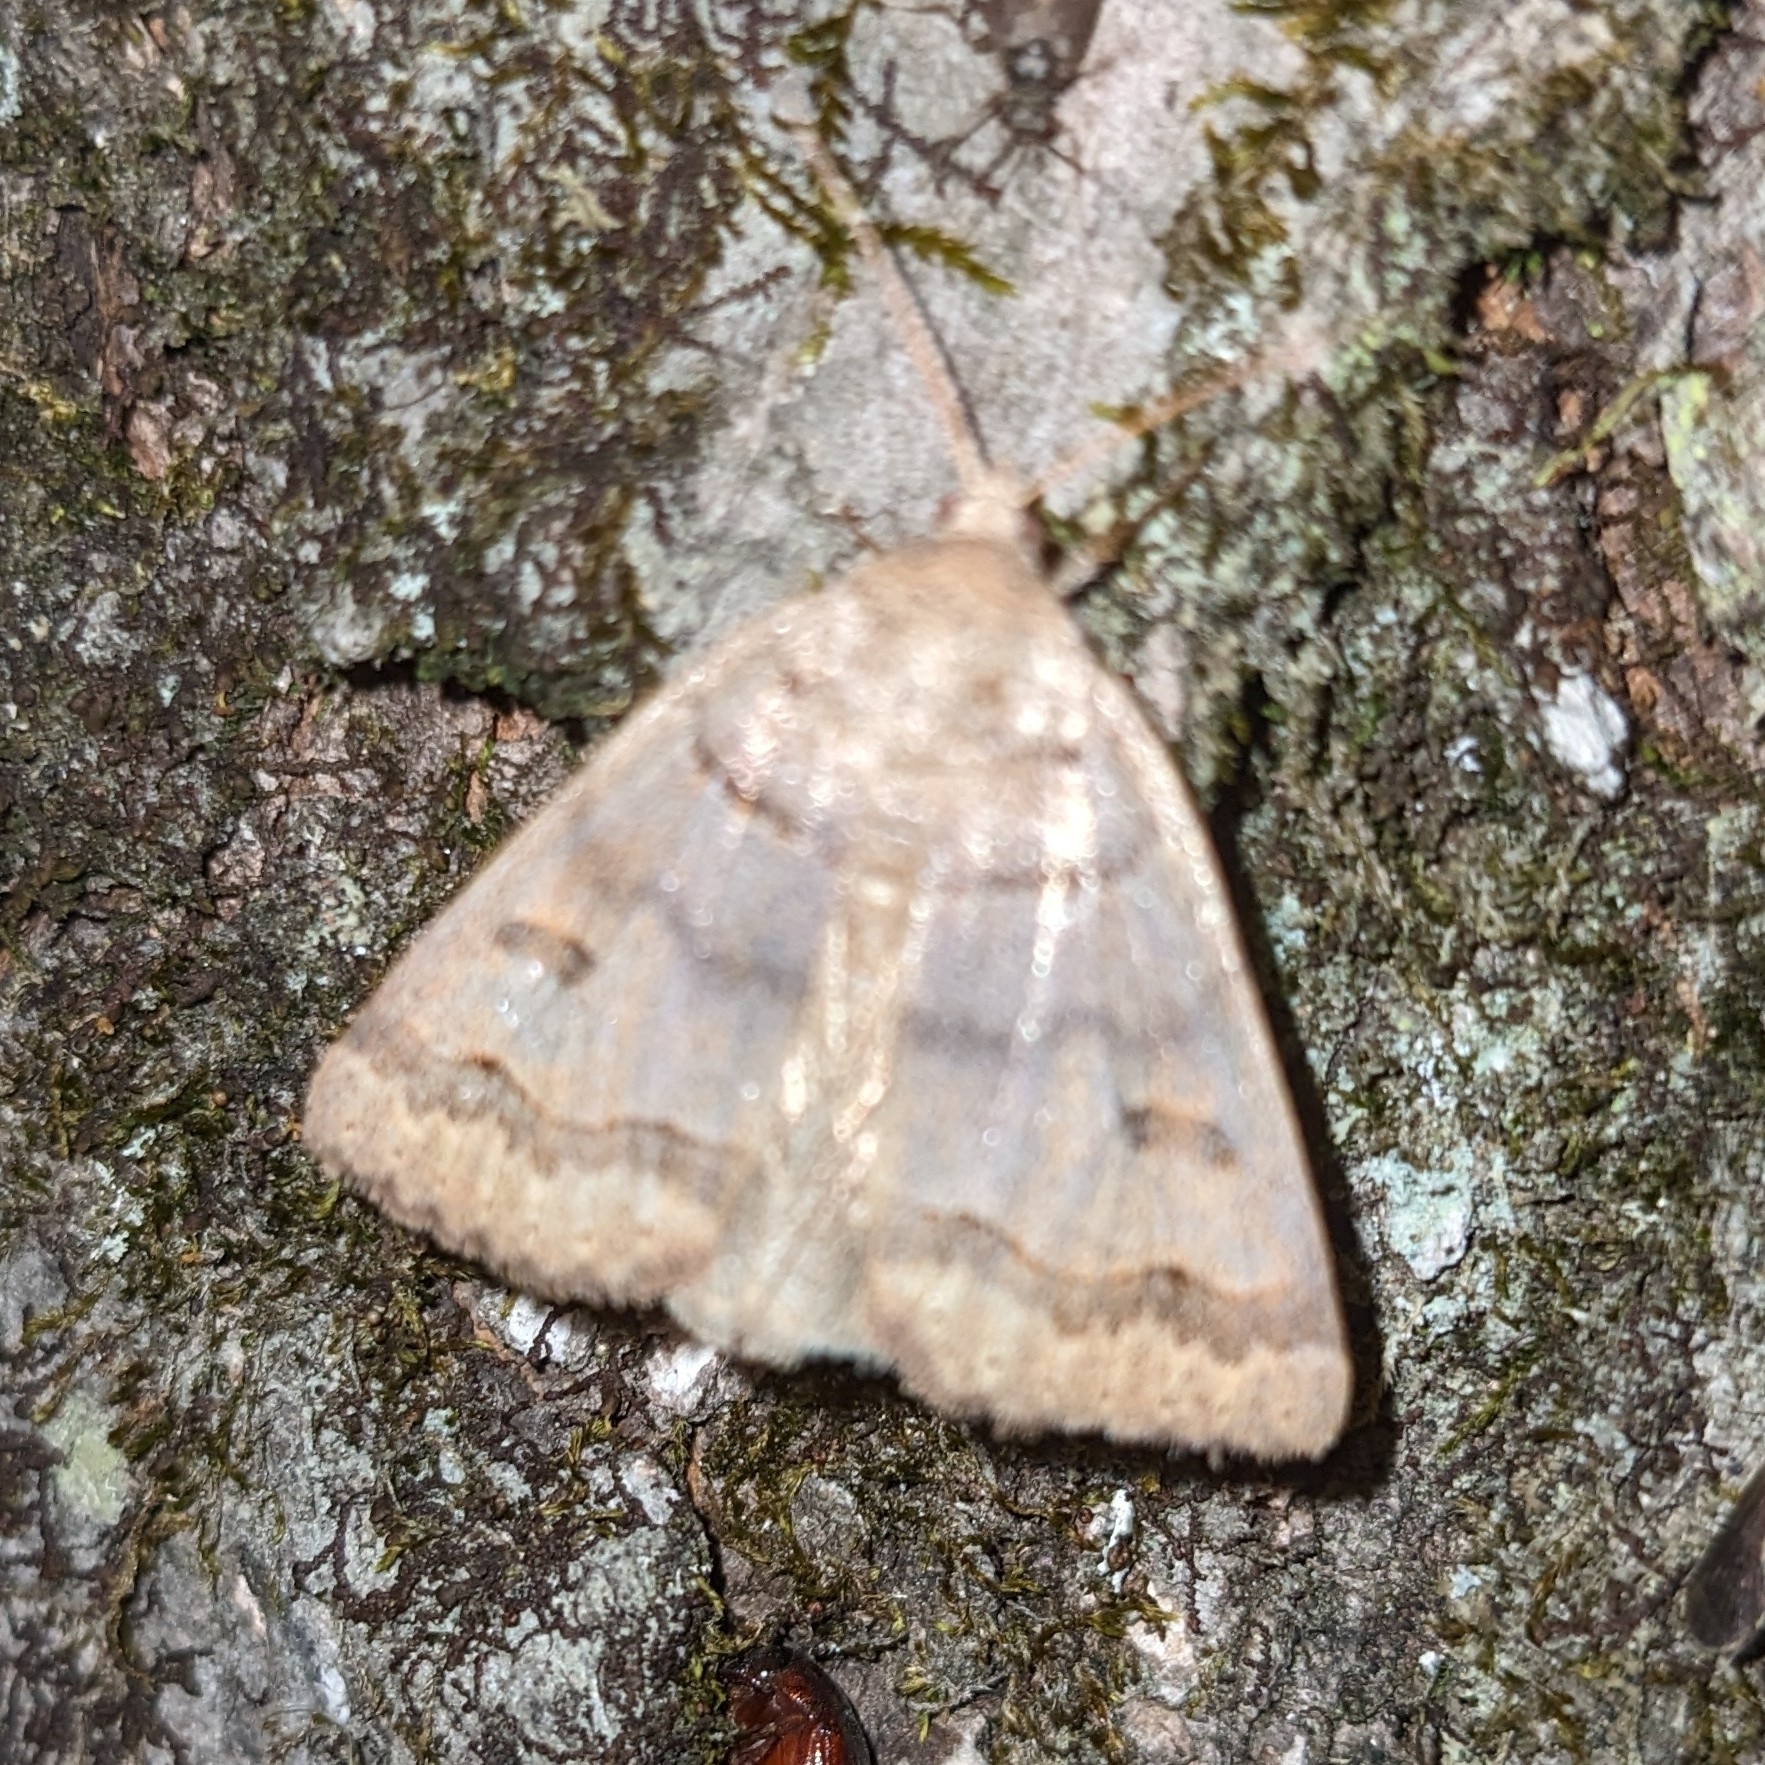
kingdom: Animalia
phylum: Arthropoda
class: Insecta
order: Lepidoptera
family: Erebidae
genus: Phoberia
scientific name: Phoberia atomaris
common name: Common oak moth
